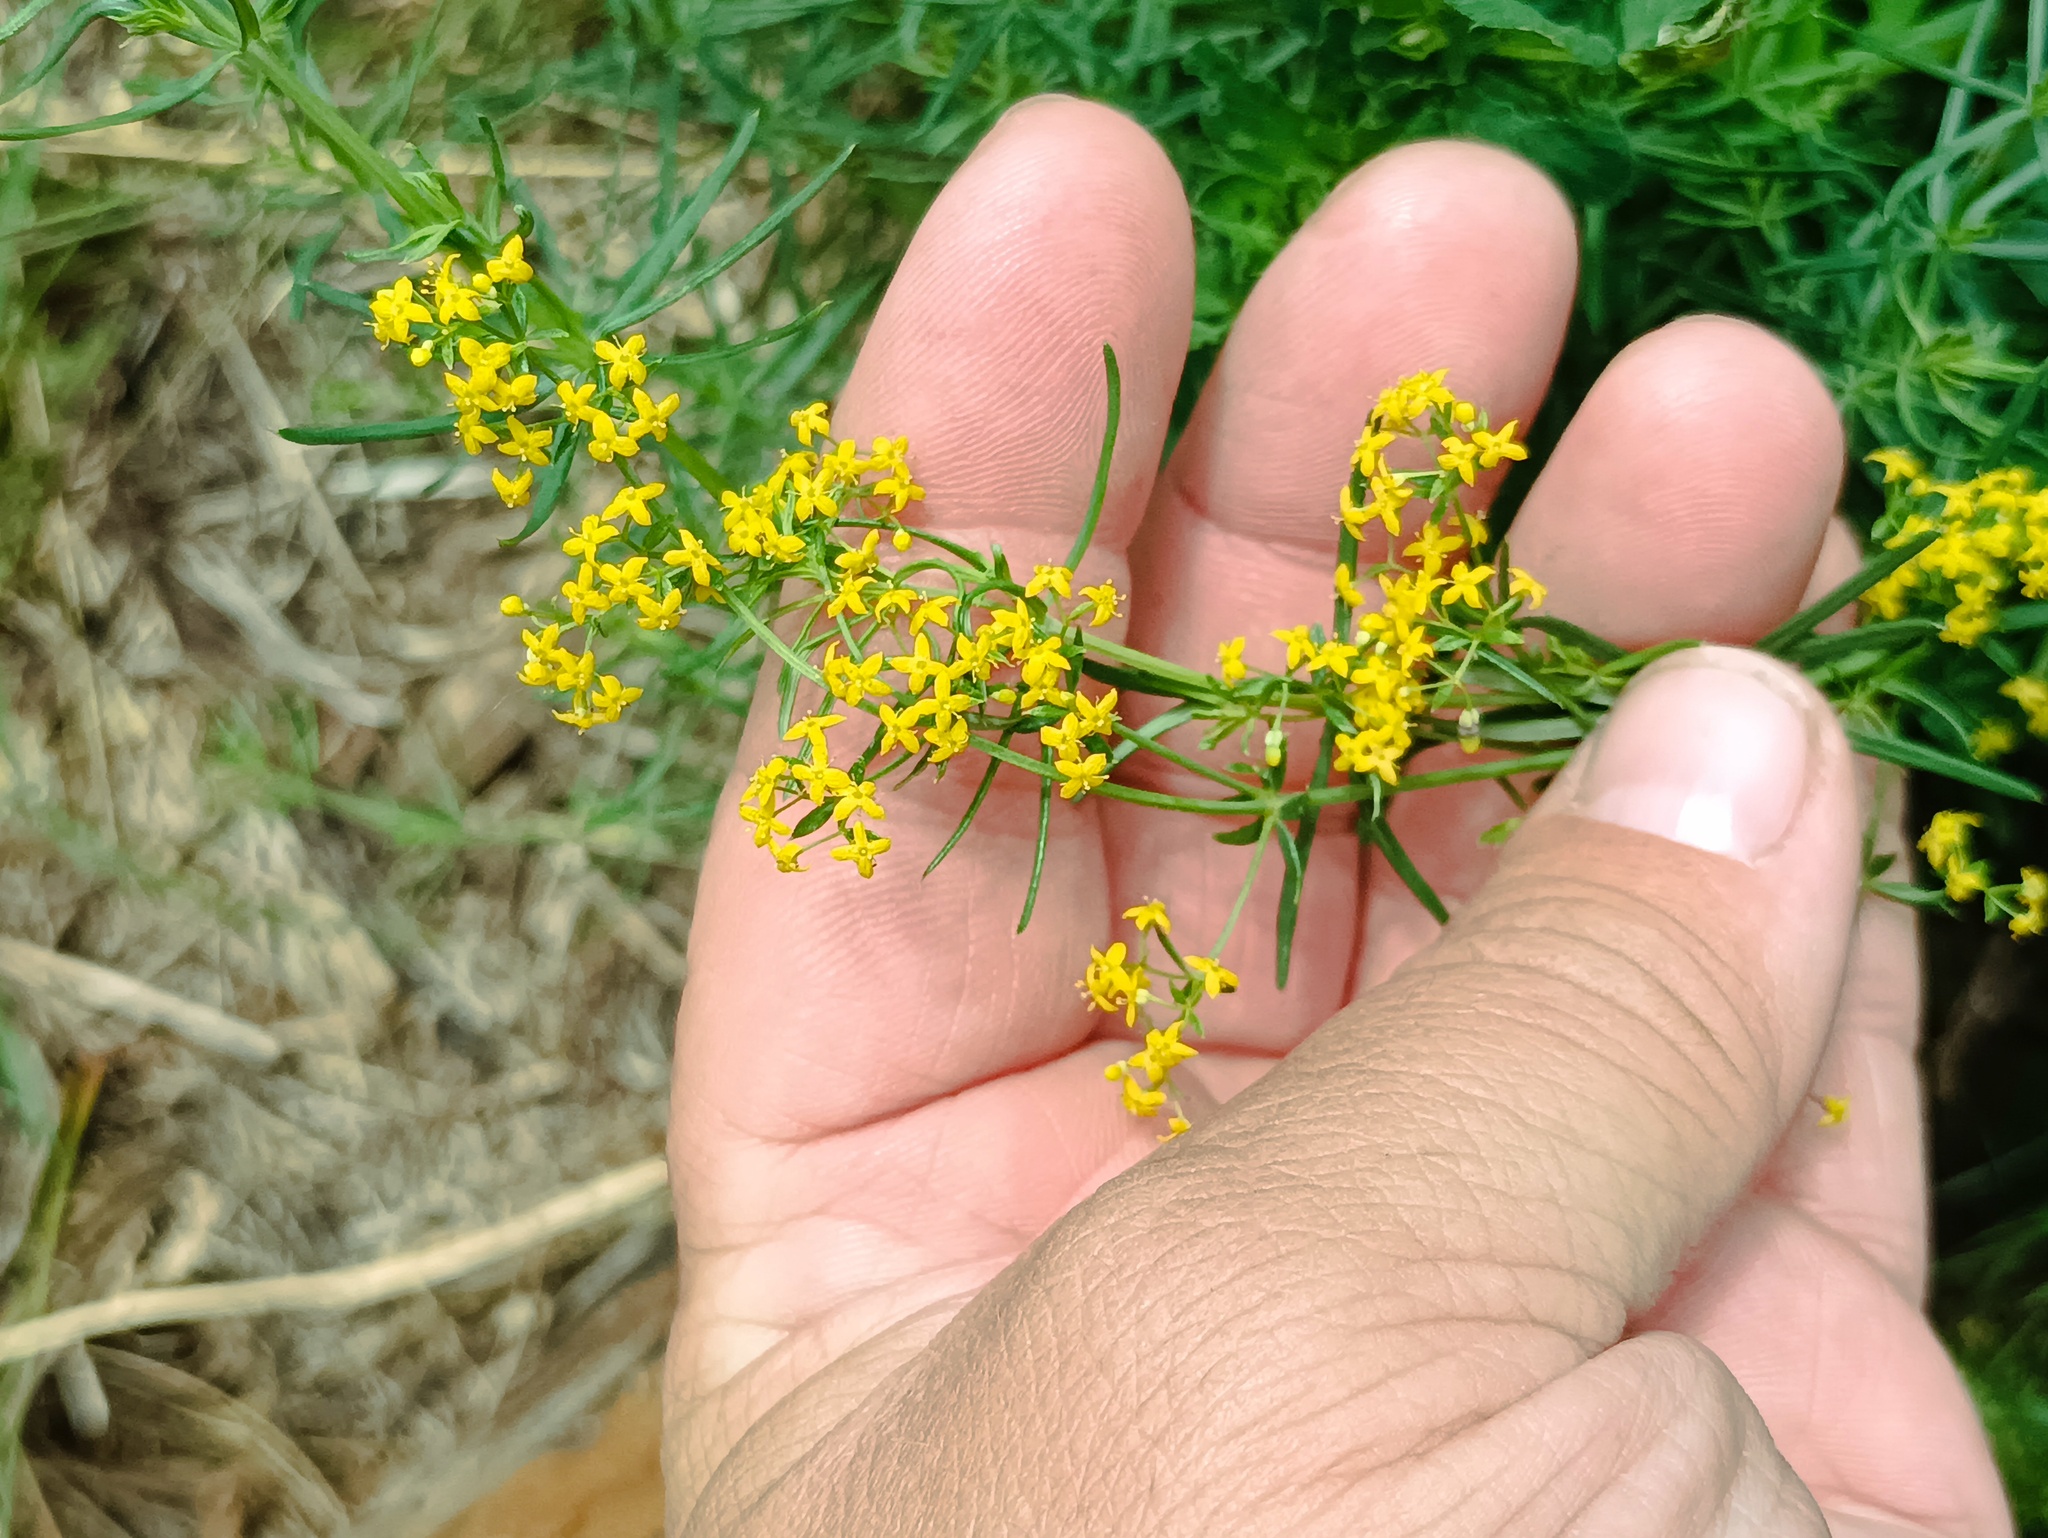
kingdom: Plantae
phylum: Tracheophyta
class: Magnoliopsida
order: Gentianales
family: Rubiaceae
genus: Galium
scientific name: Galium verum
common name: Lady's bedstraw
